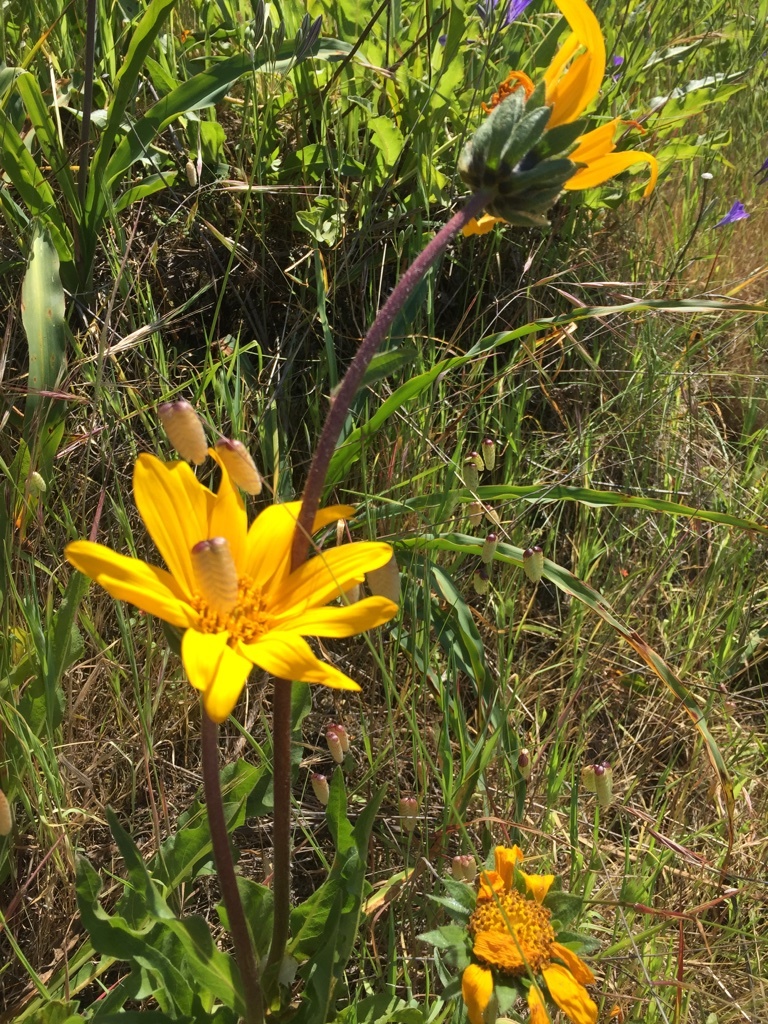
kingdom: Plantae
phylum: Tracheophyta
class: Magnoliopsida
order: Asterales
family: Asteraceae
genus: Wyethia
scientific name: Wyethia angustifolia
